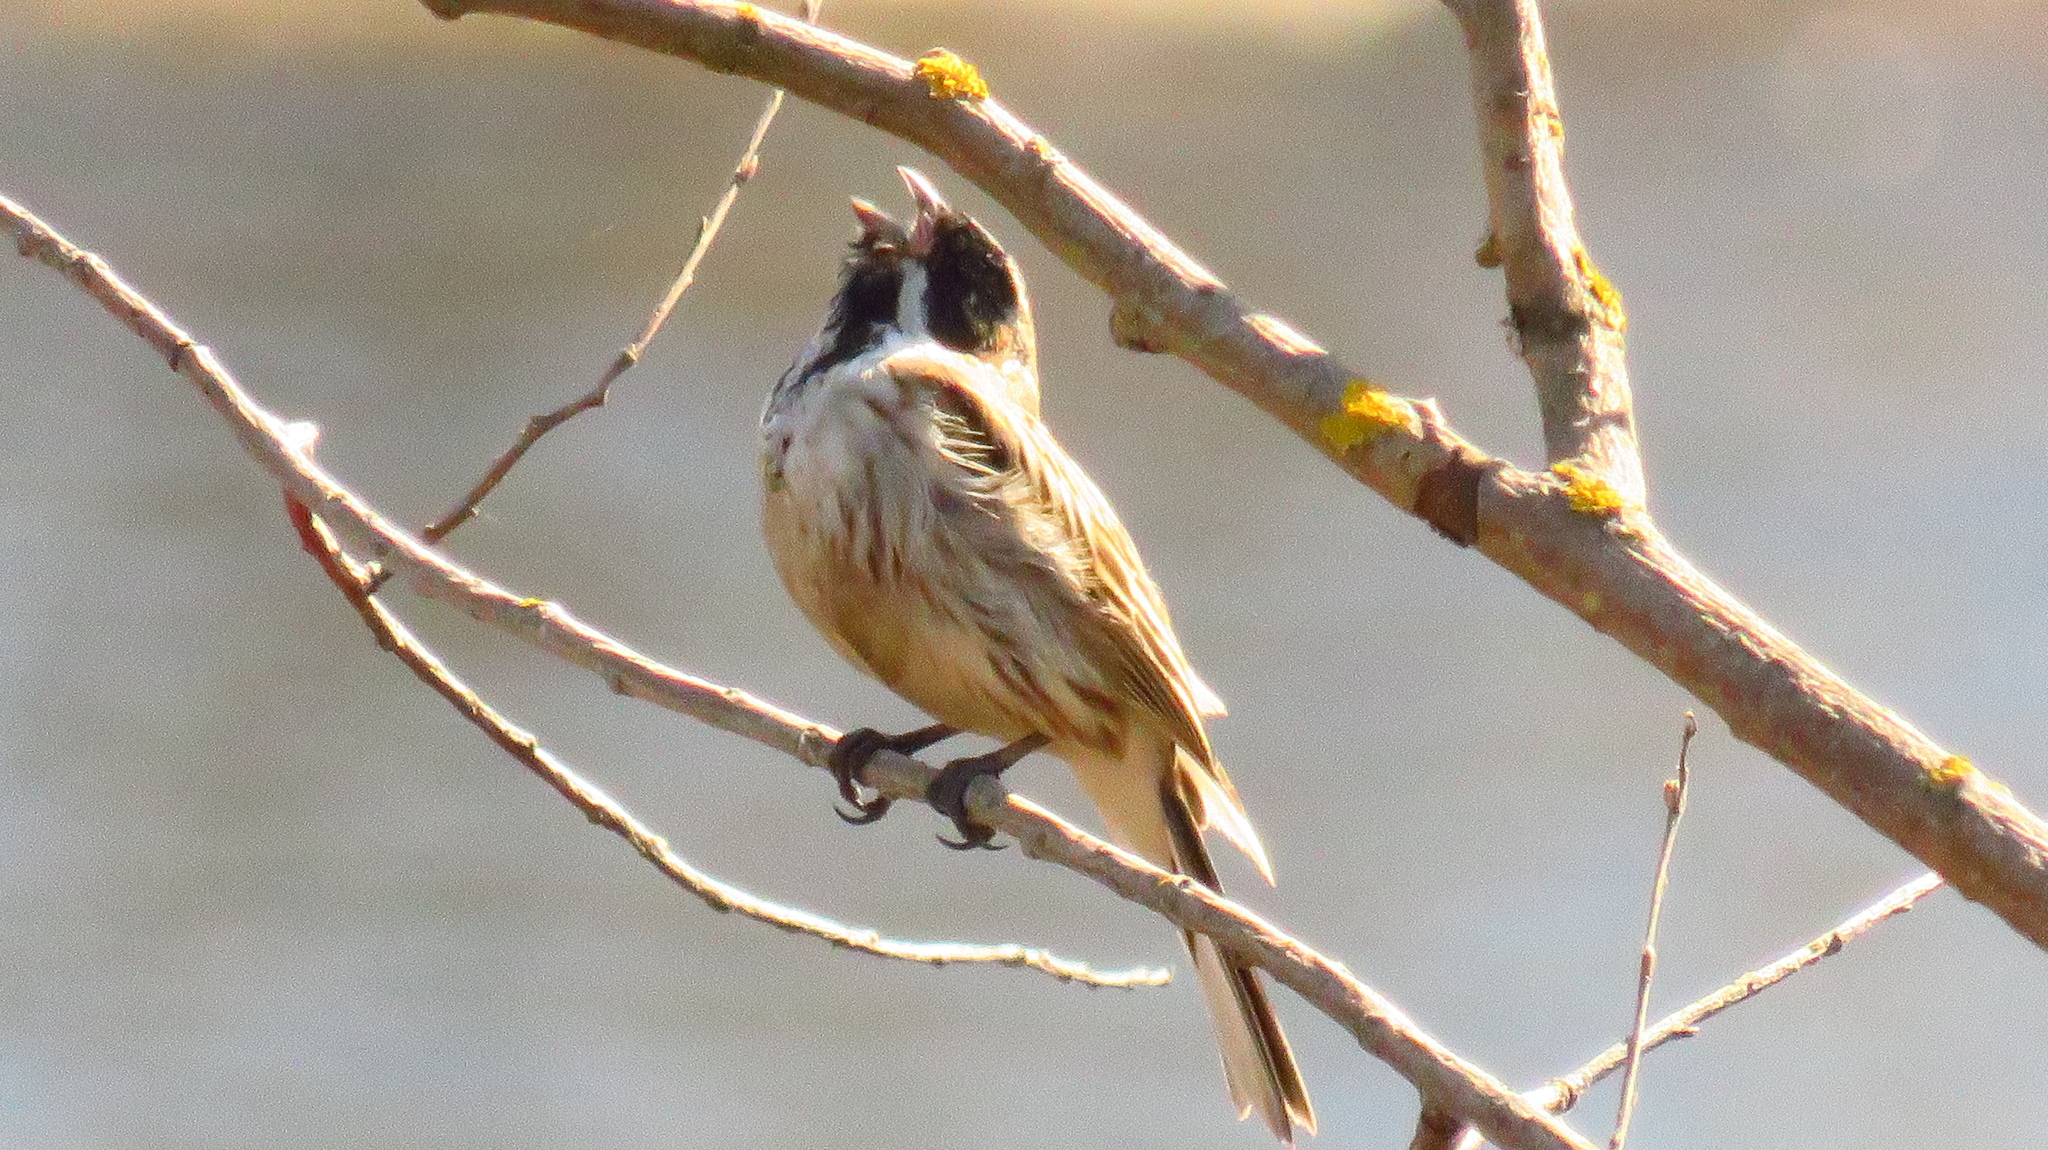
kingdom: Animalia
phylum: Chordata
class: Aves
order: Passeriformes
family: Emberizidae
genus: Emberiza
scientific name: Emberiza schoeniclus
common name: Reed bunting
